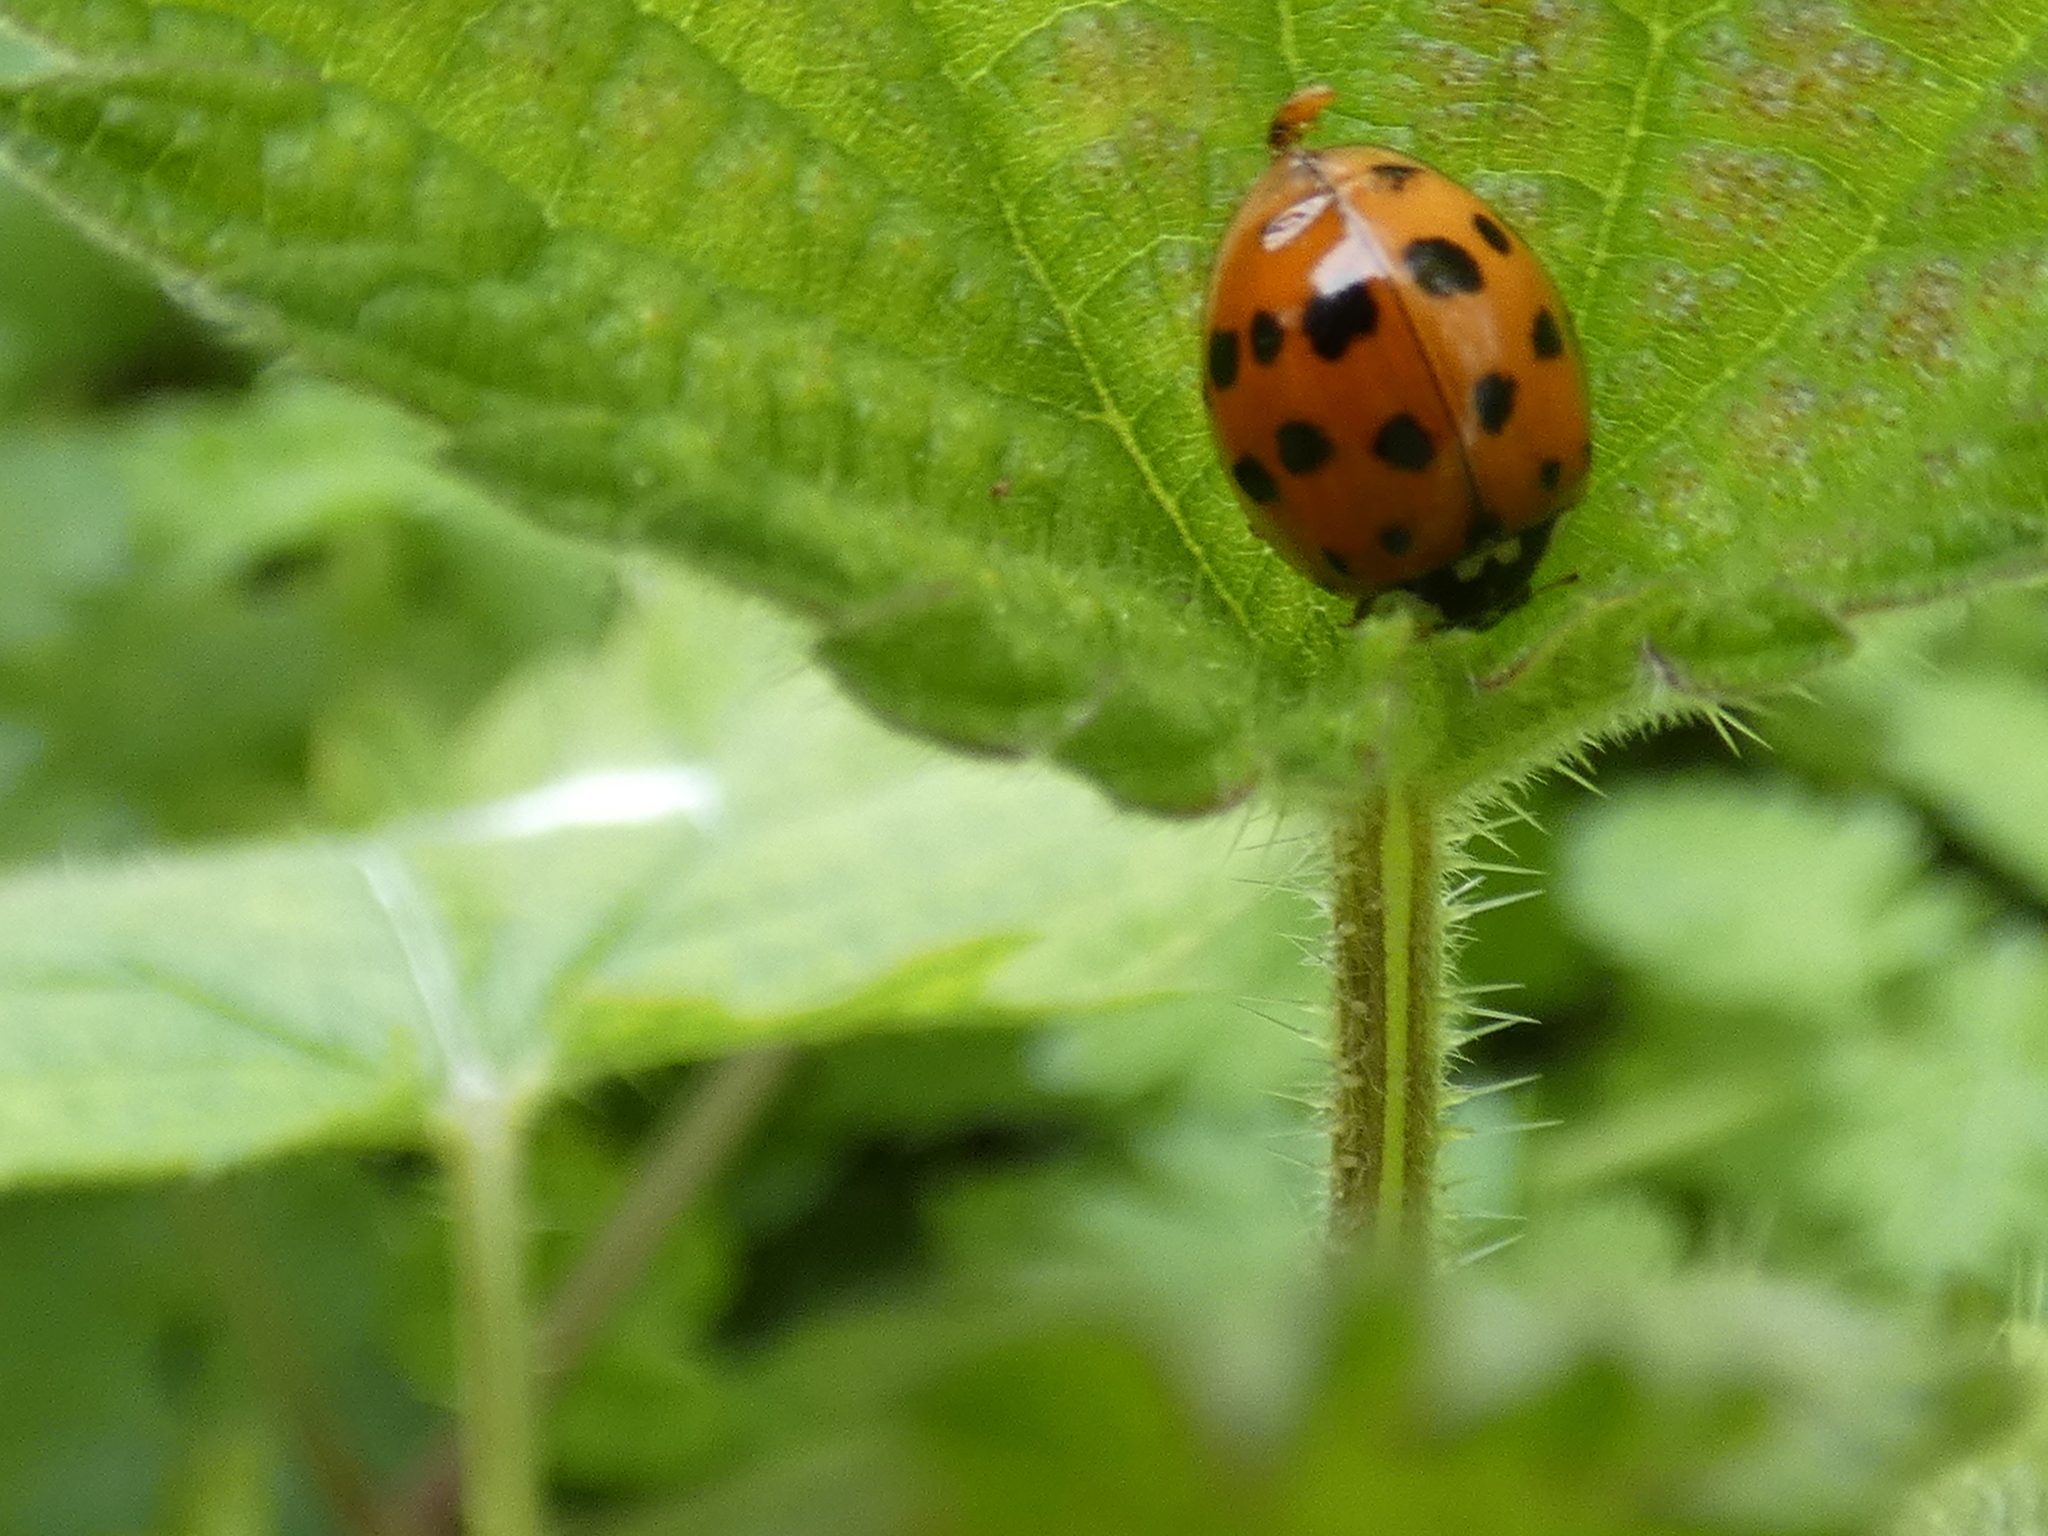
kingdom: Animalia
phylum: Arthropoda
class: Insecta
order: Coleoptera
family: Coccinellidae
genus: Harmonia
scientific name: Harmonia axyridis
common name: Harlequin ladybird
